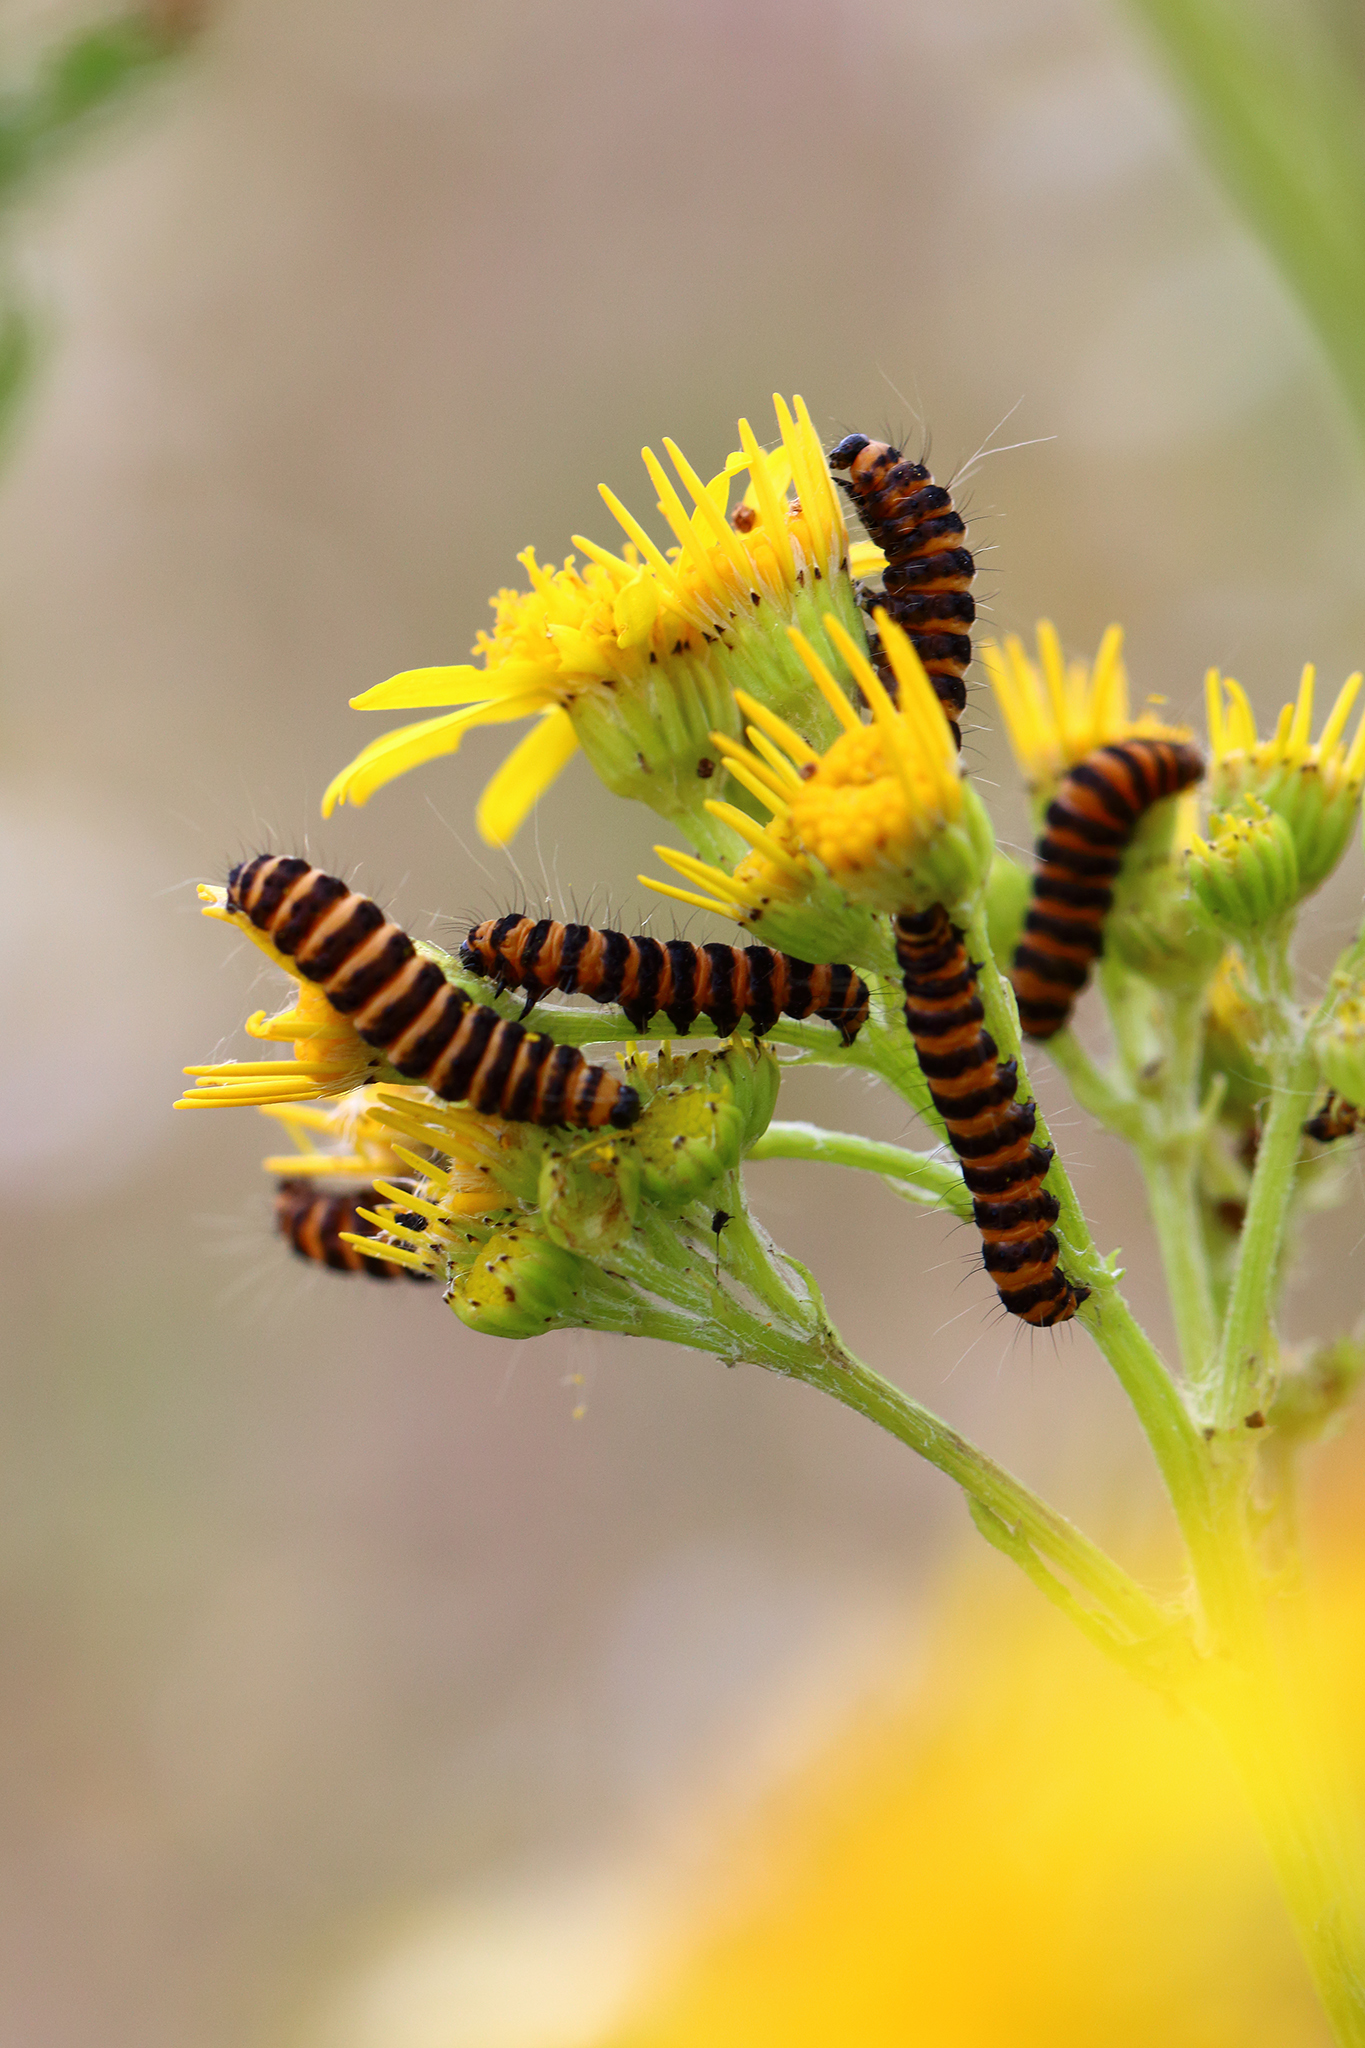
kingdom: Animalia
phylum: Arthropoda
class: Insecta
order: Lepidoptera
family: Erebidae
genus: Tyria
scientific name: Tyria jacobaeae
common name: Cinnabar
